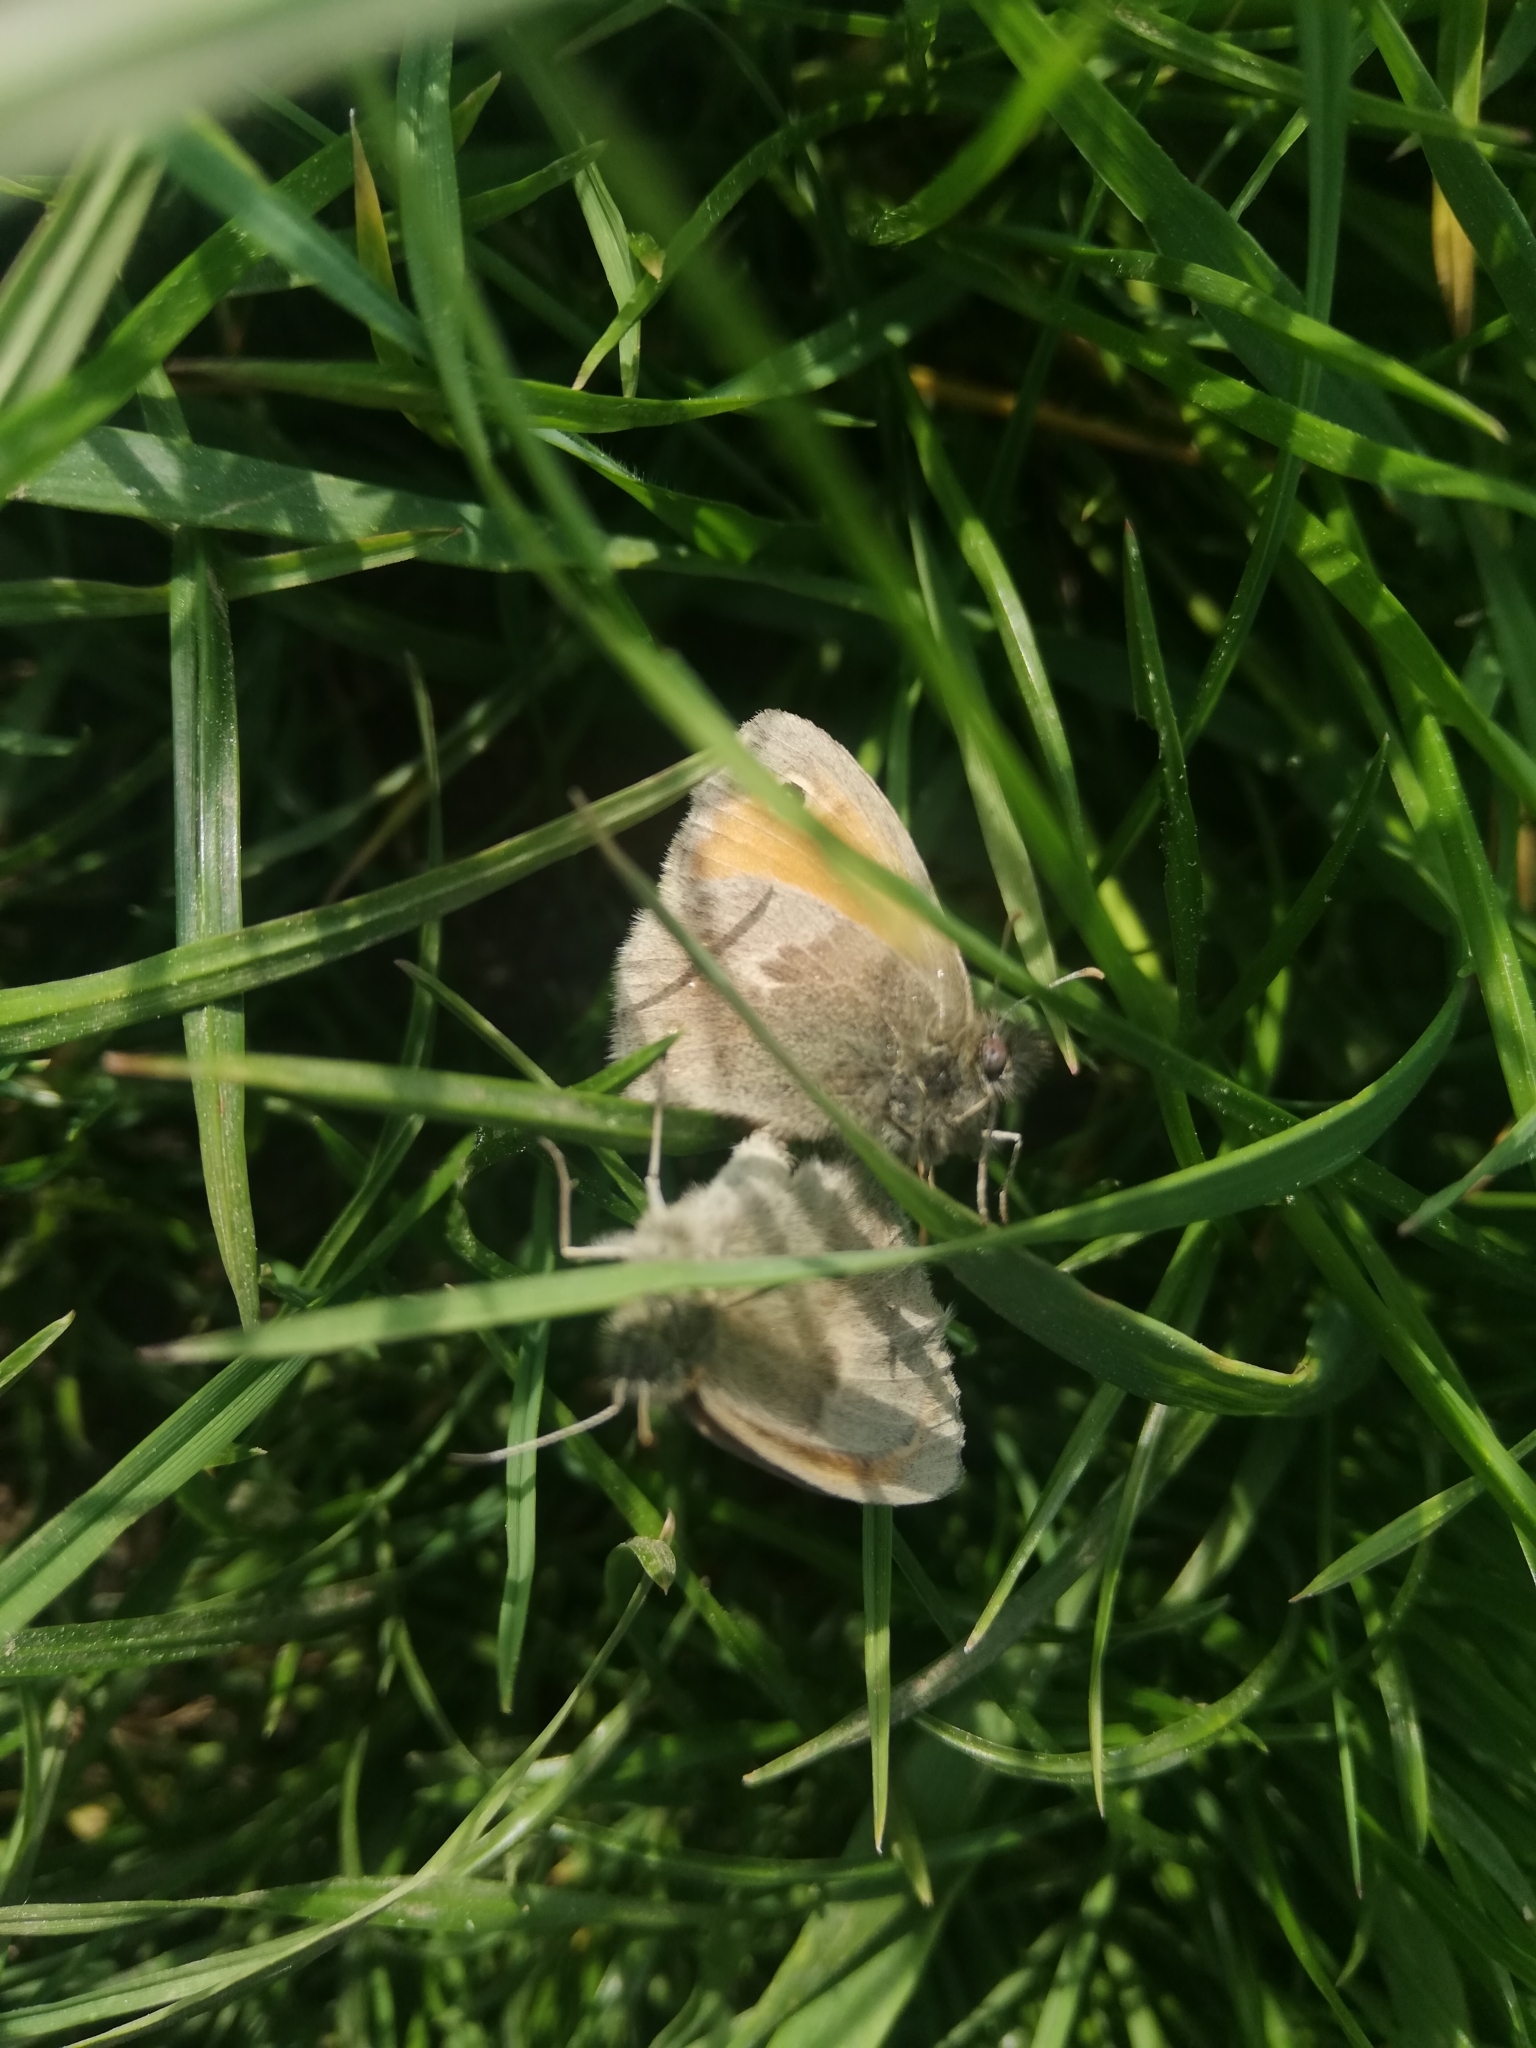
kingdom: Animalia
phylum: Arthropoda
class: Insecta
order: Lepidoptera
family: Nymphalidae
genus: Coenonympha
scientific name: Coenonympha pamphilus
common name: Small heath
